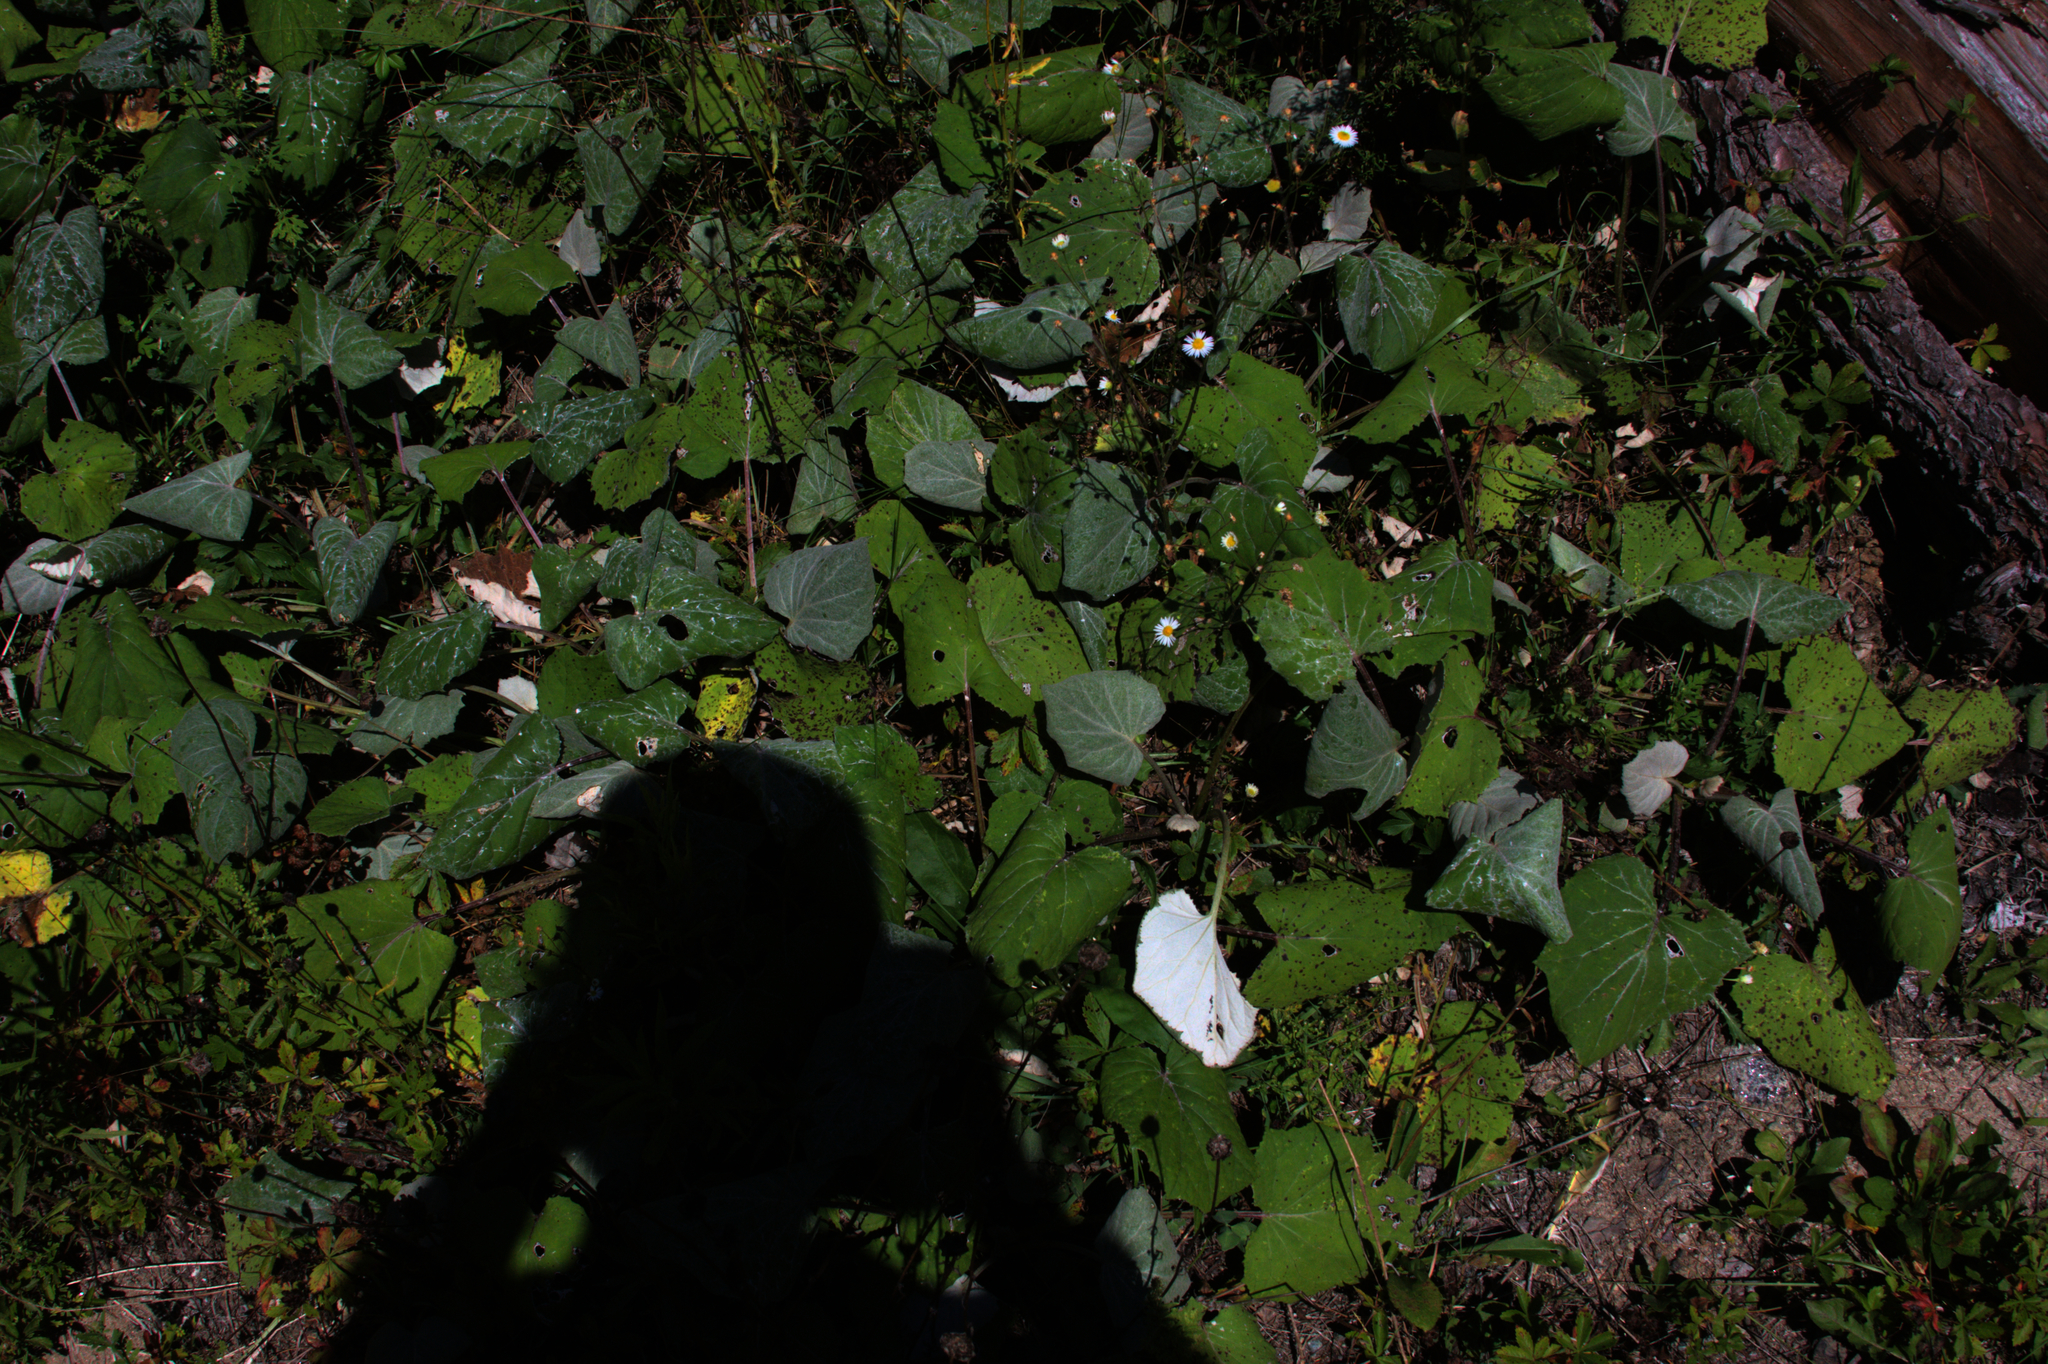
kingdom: Plantae
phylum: Tracheophyta
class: Magnoliopsida
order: Asterales
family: Asteraceae
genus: Tussilago
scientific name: Tussilago farfara
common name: Coltsfoot
